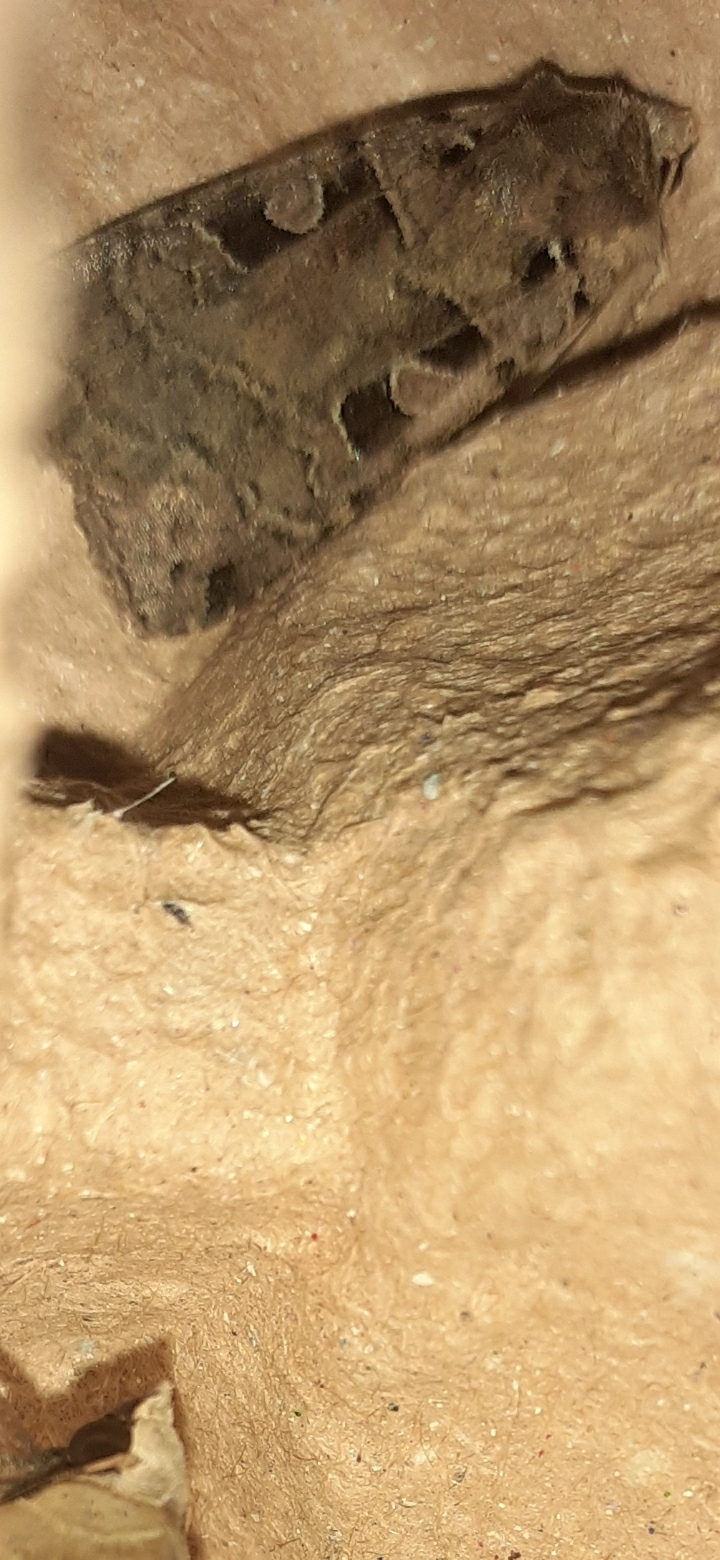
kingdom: Animalia
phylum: Arthropoda
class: Insecta
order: Lepidoptera
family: Noctuidae
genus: Xestia
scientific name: Xestia triangulum
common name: Double square-spot
